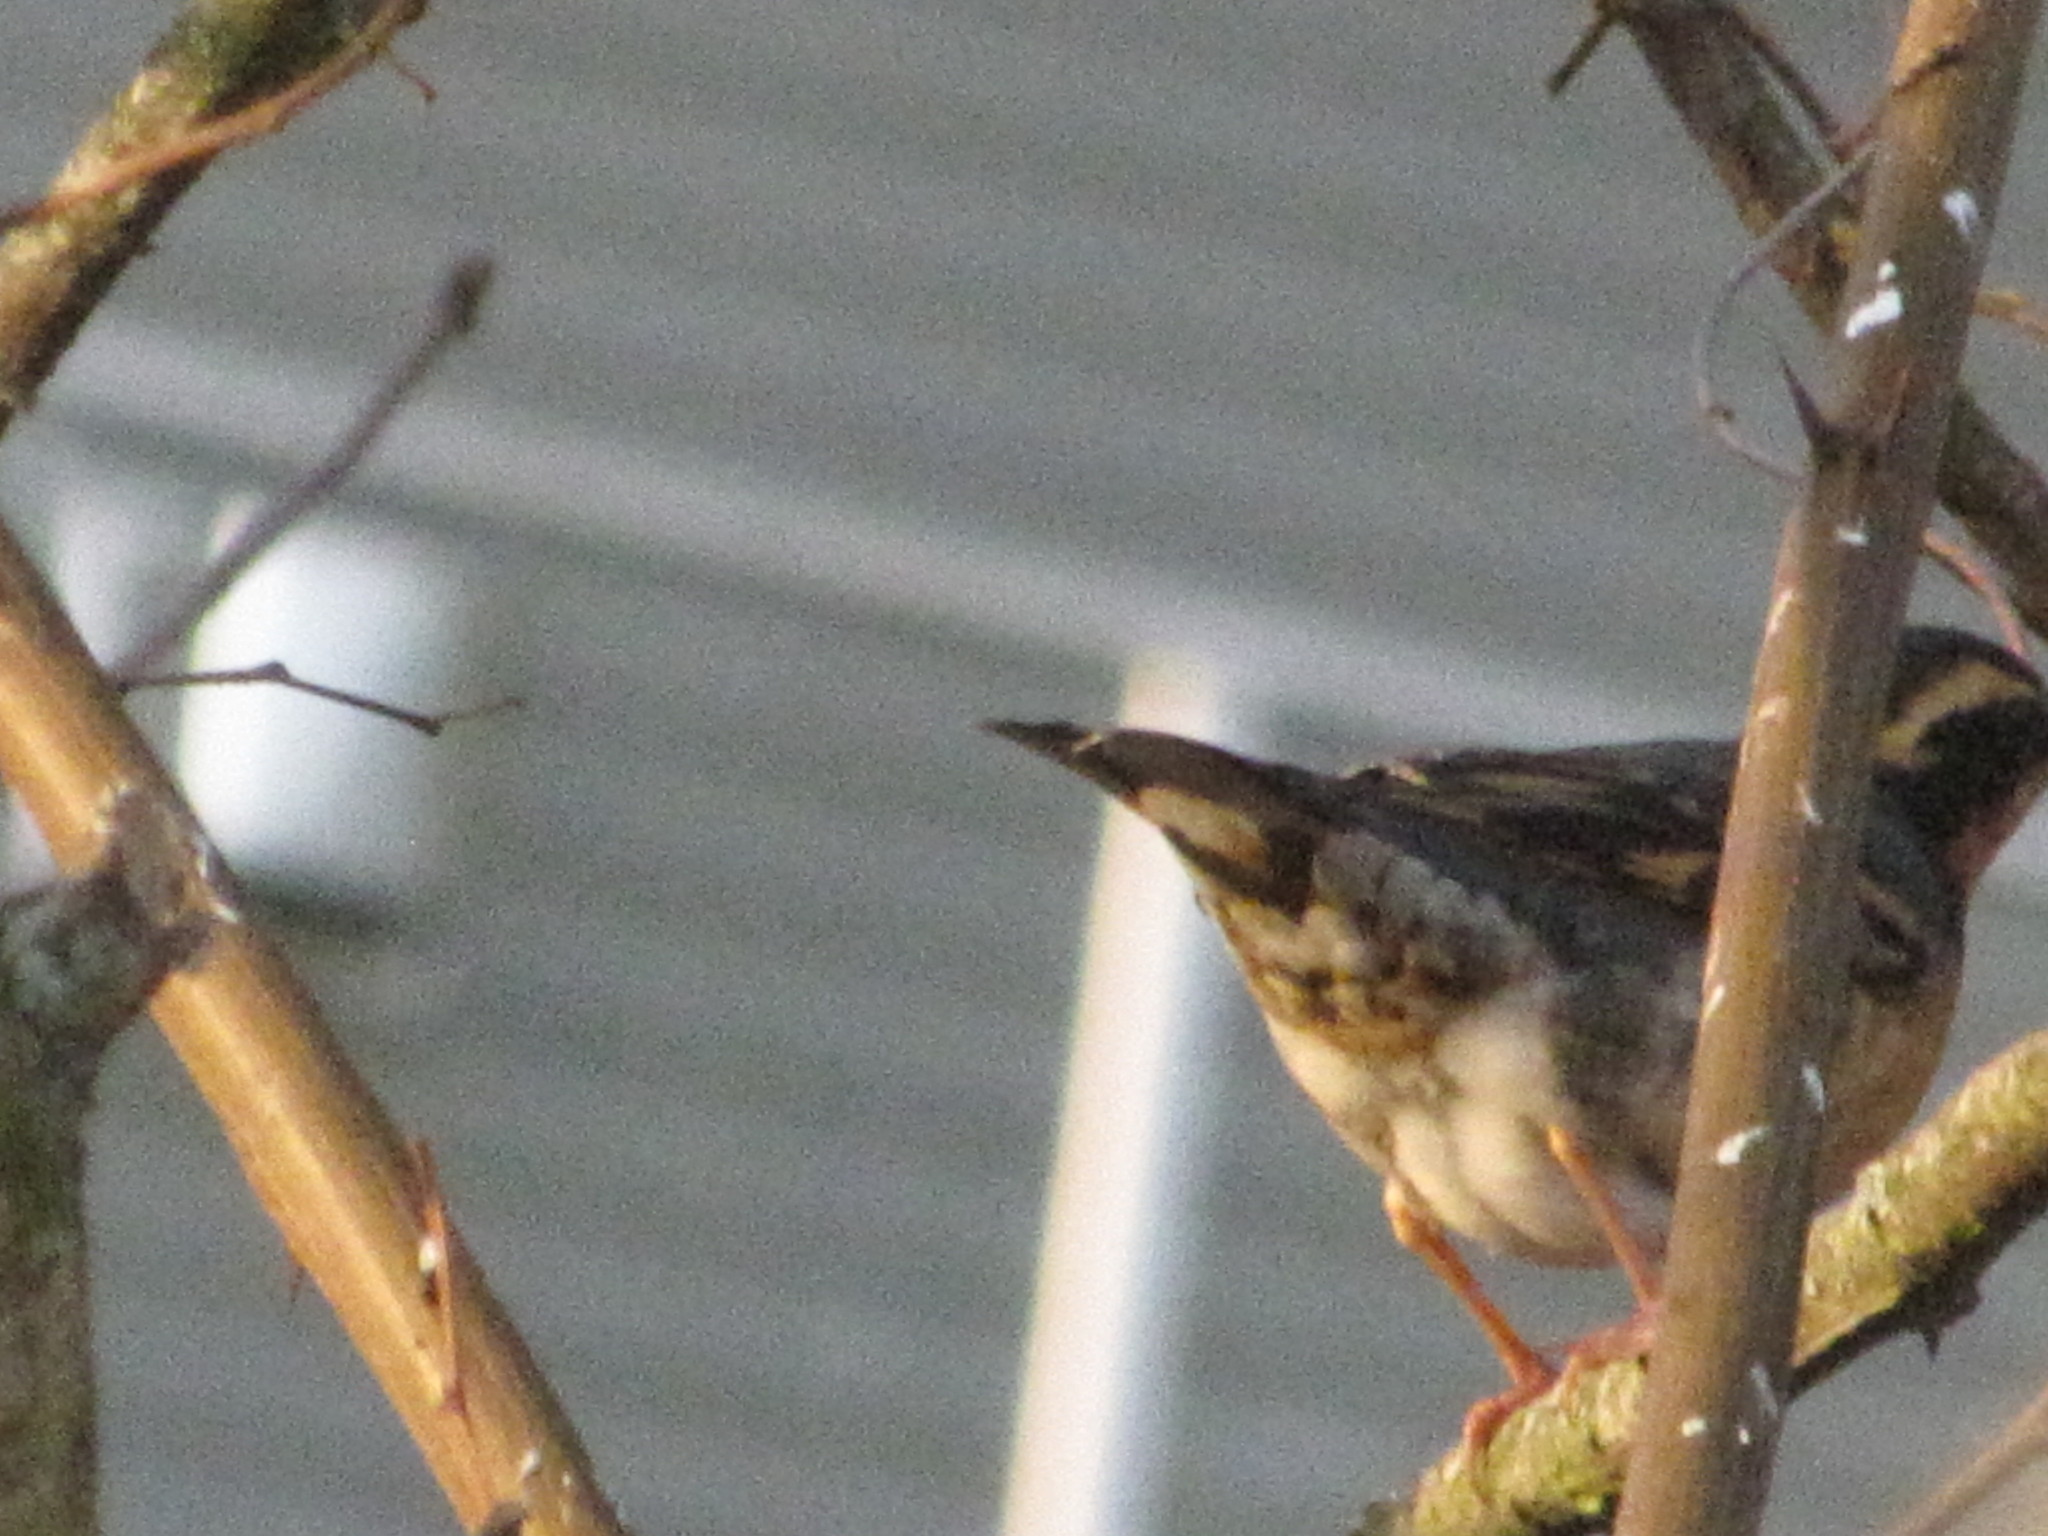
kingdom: Animalia
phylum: Chordata
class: Aves
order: Passeriformes
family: Turdidae
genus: Ixoreus
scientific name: Ixoreus naevius
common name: Varied thrush
